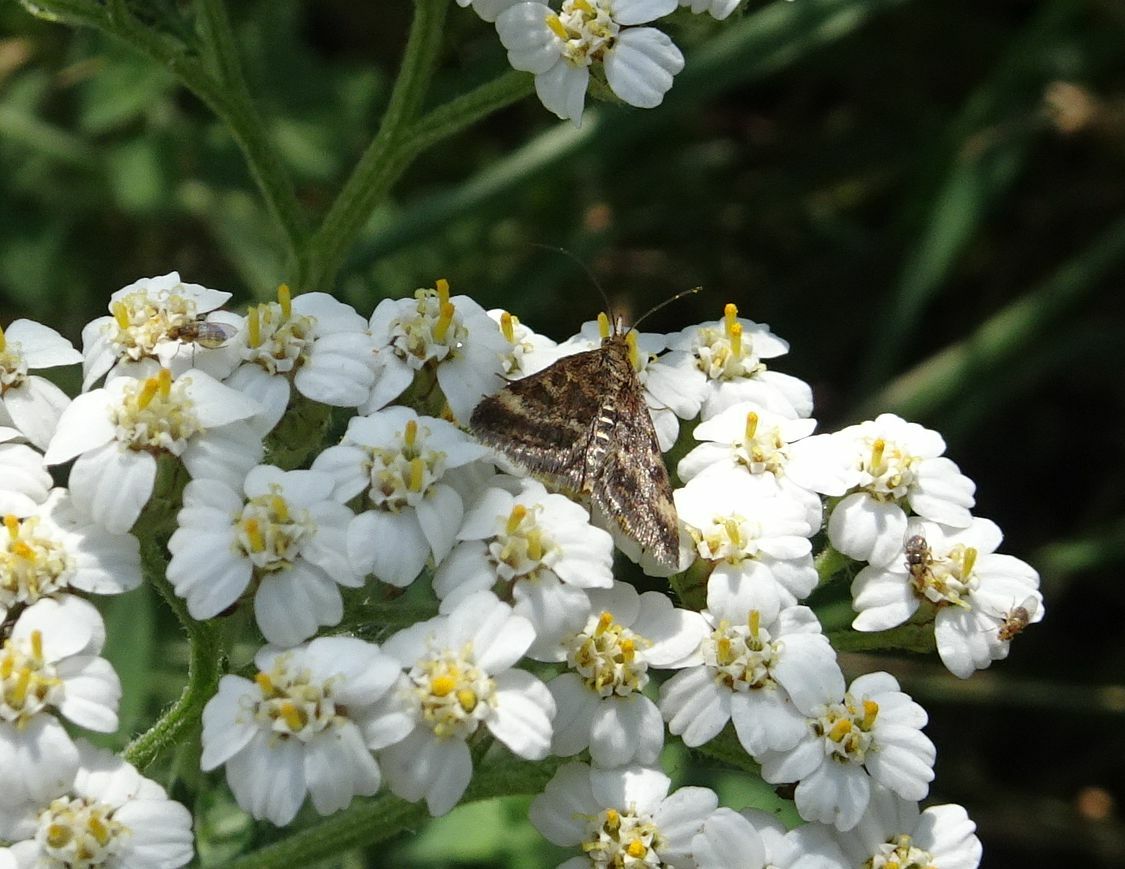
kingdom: Animalia
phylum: Arthropoda
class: Insecta
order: Lepidoptera
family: Crambidae
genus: Pyrausta
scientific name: Pyrausta despicata
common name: Straw-barred pearl
